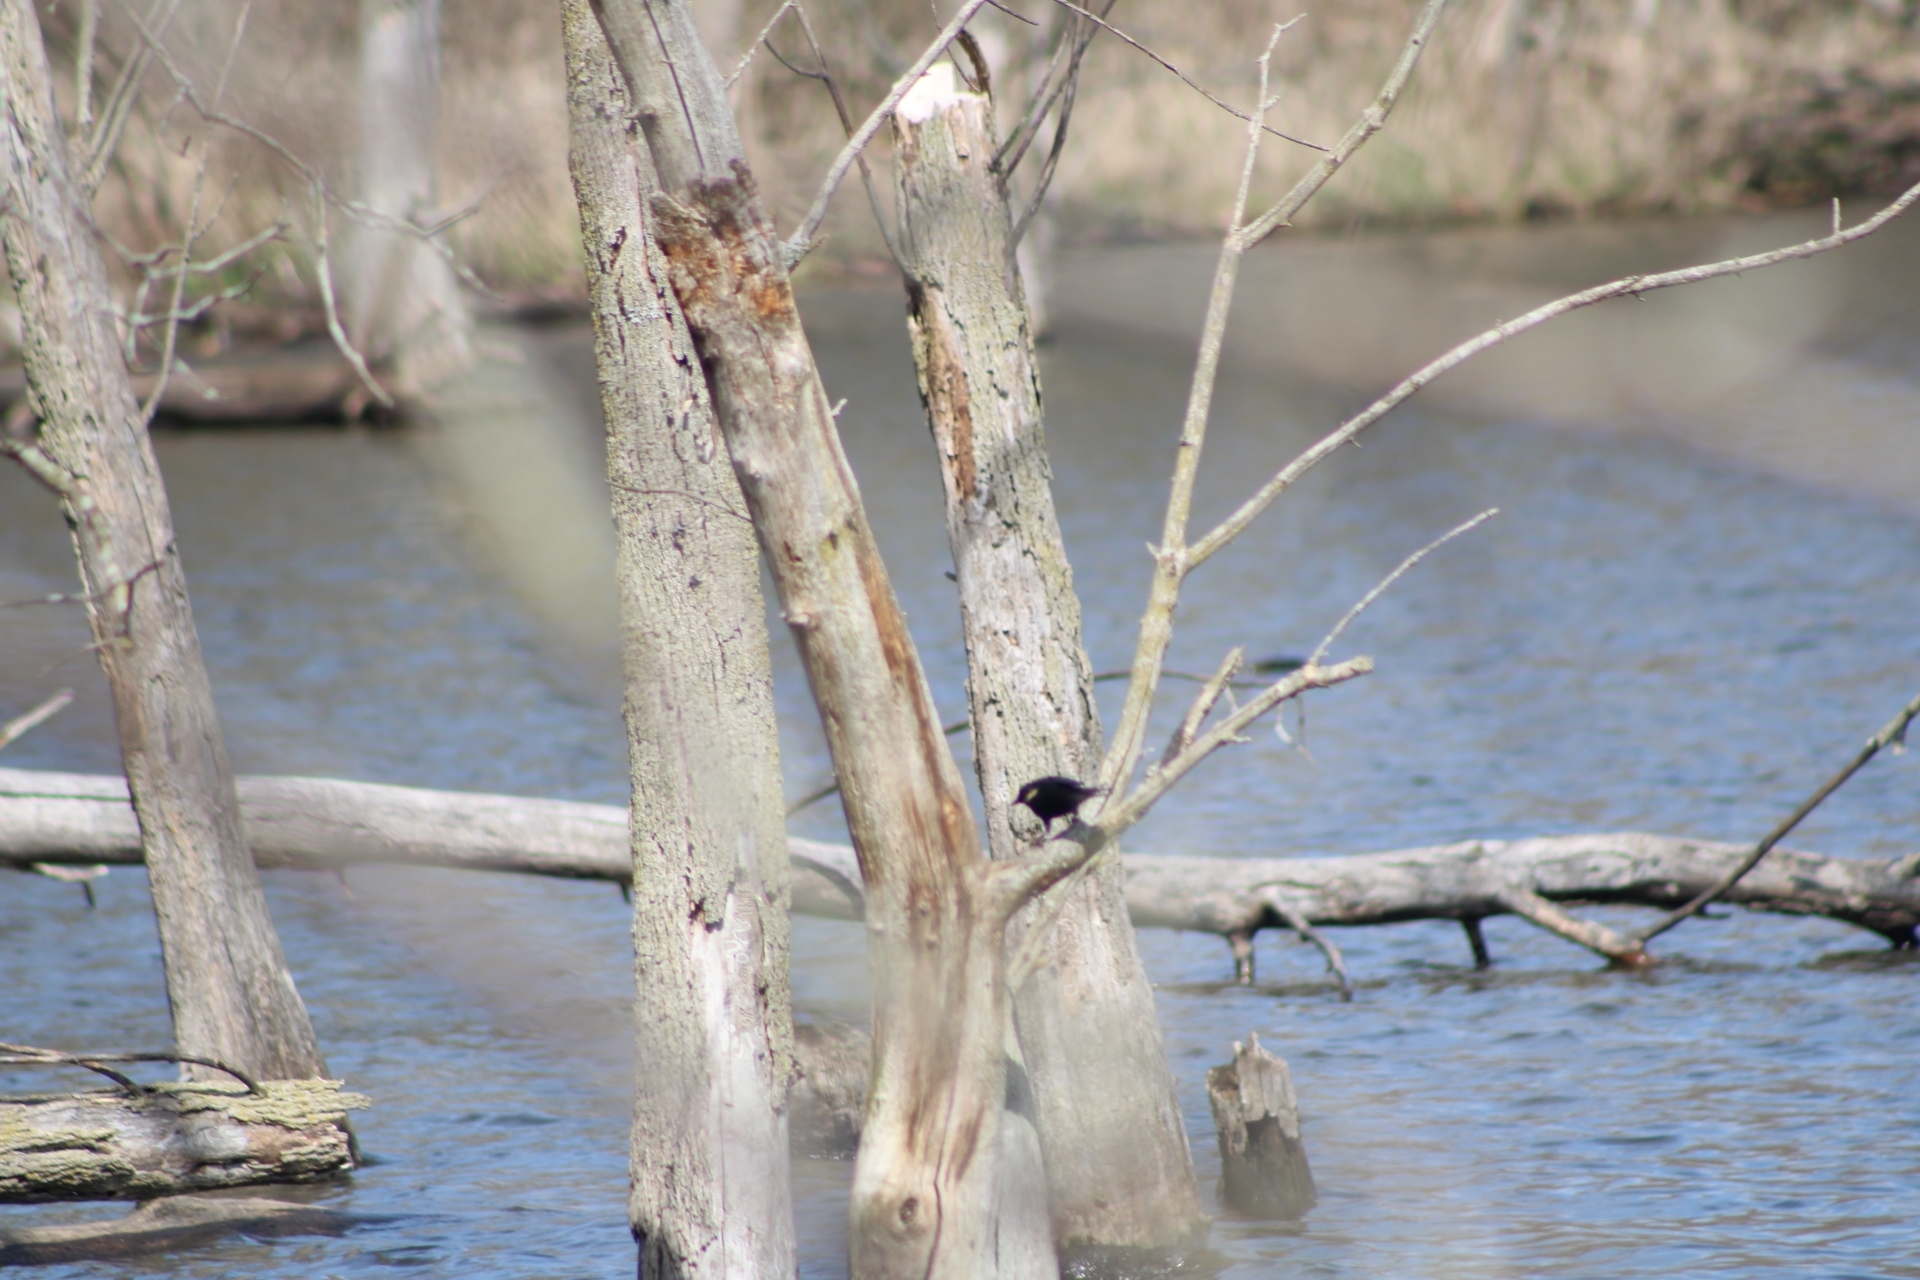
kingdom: Animalia
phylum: Chordata
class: Aves
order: Passeriformes
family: Icteridae
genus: Agelaius
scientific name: Agelaius phoeniceus
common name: Red-winged blackbird
